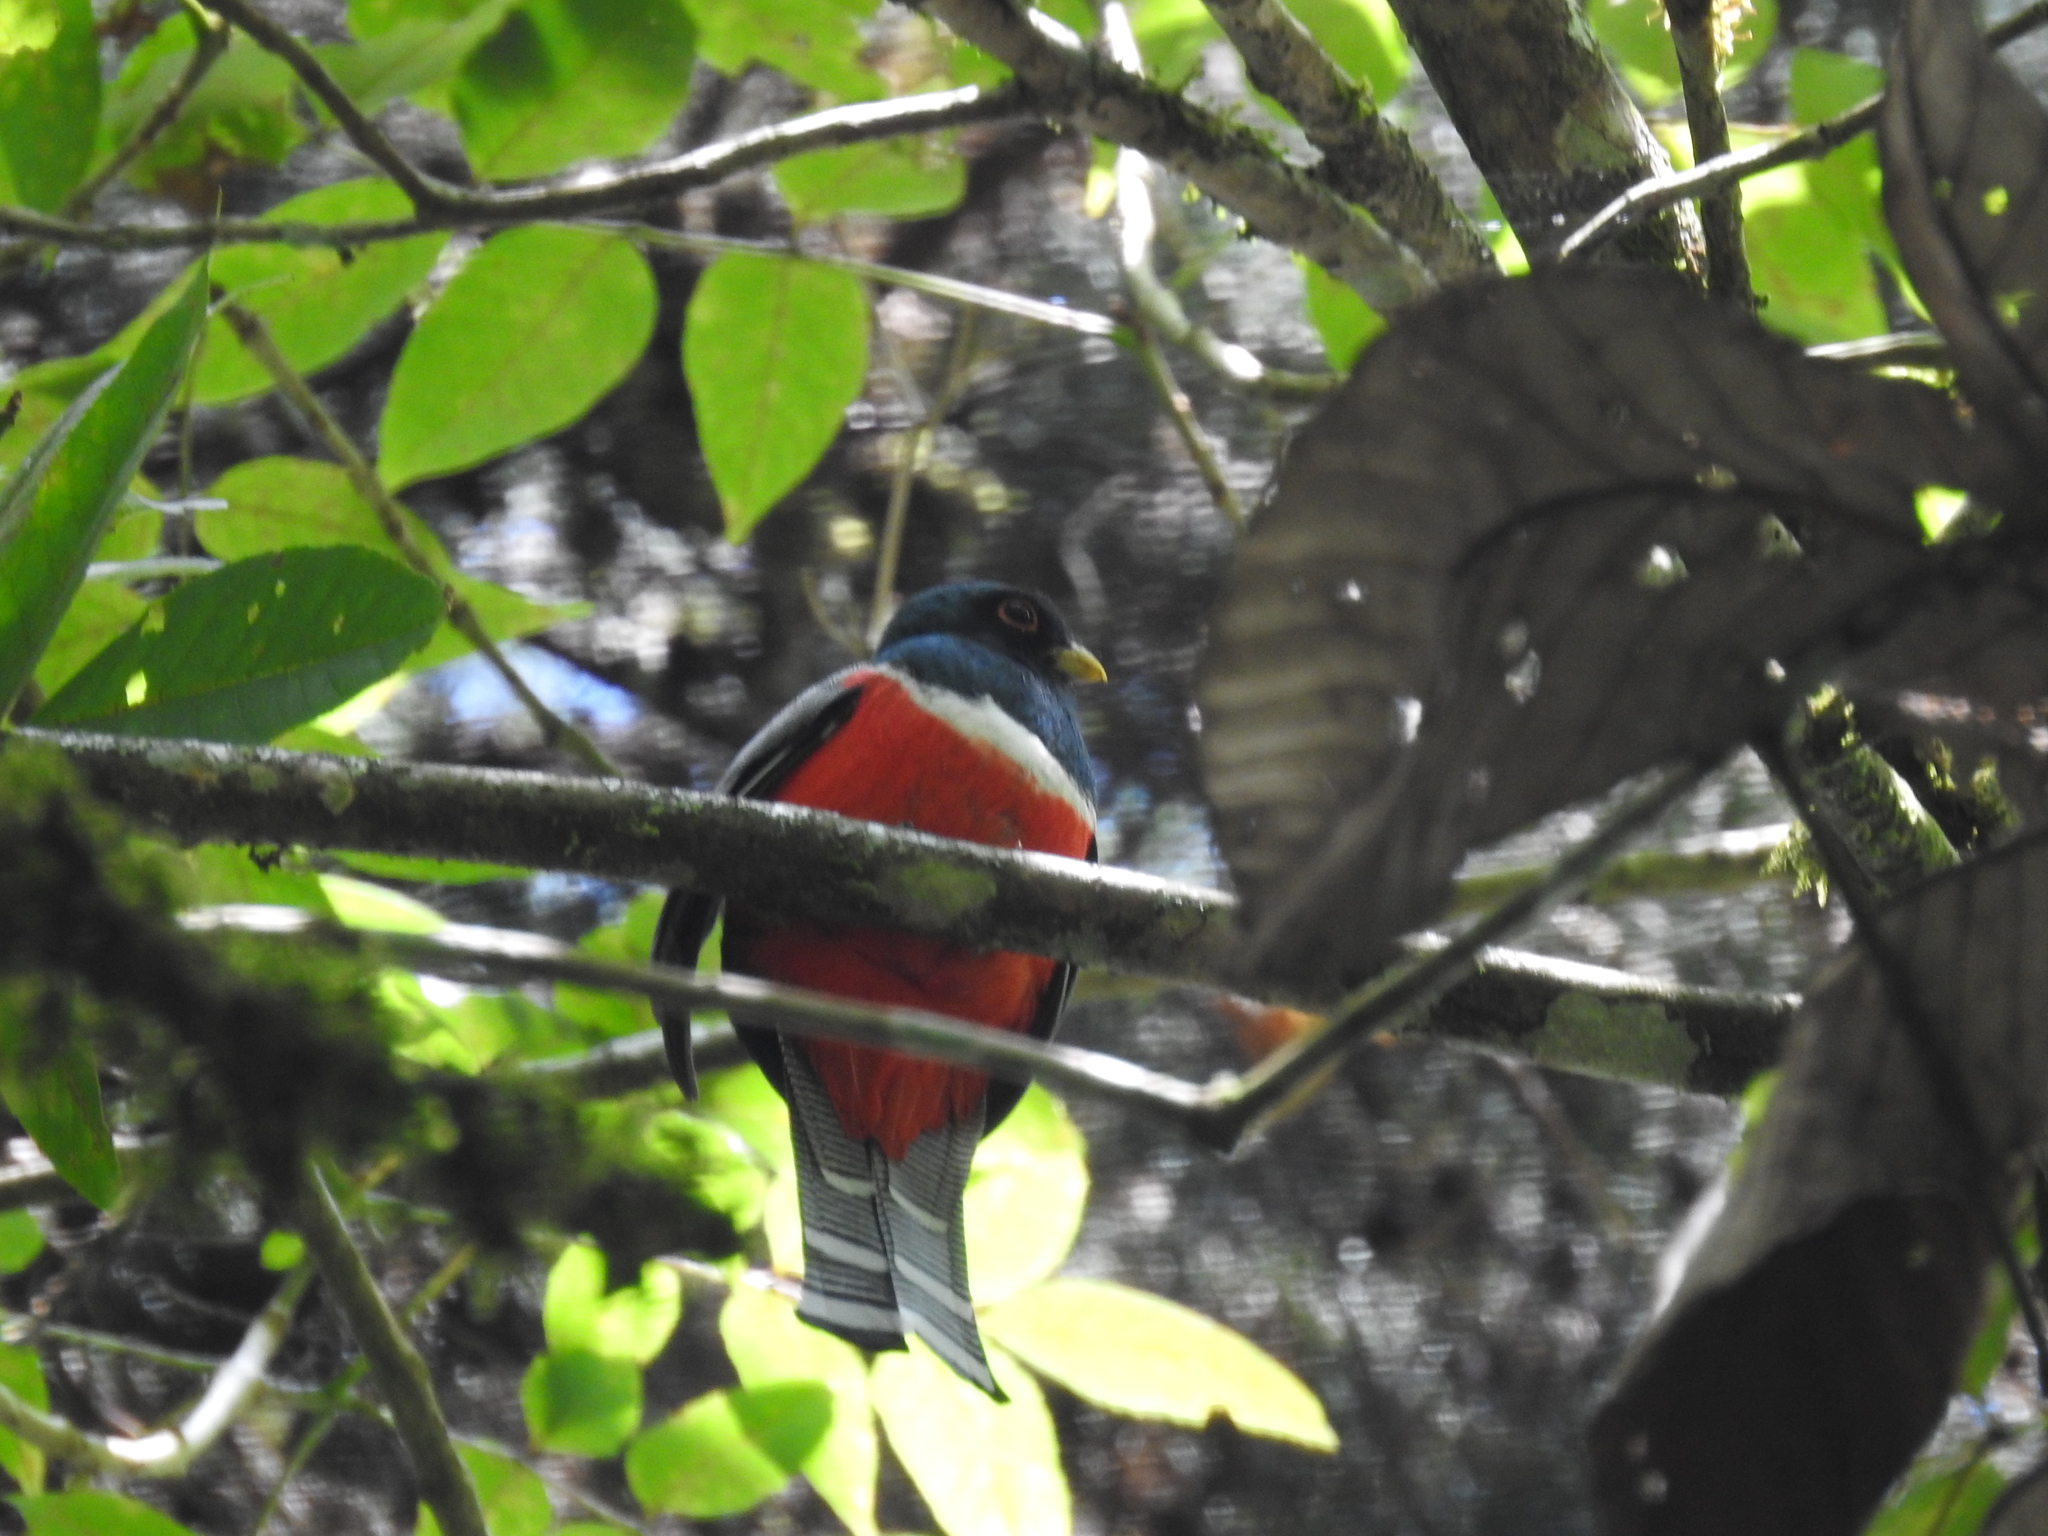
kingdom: Animalia
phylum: Chordata
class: Aves
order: Trogoniformes
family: Trogonidae
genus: Trogon
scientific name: Trogon collaris
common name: Collared trogon
